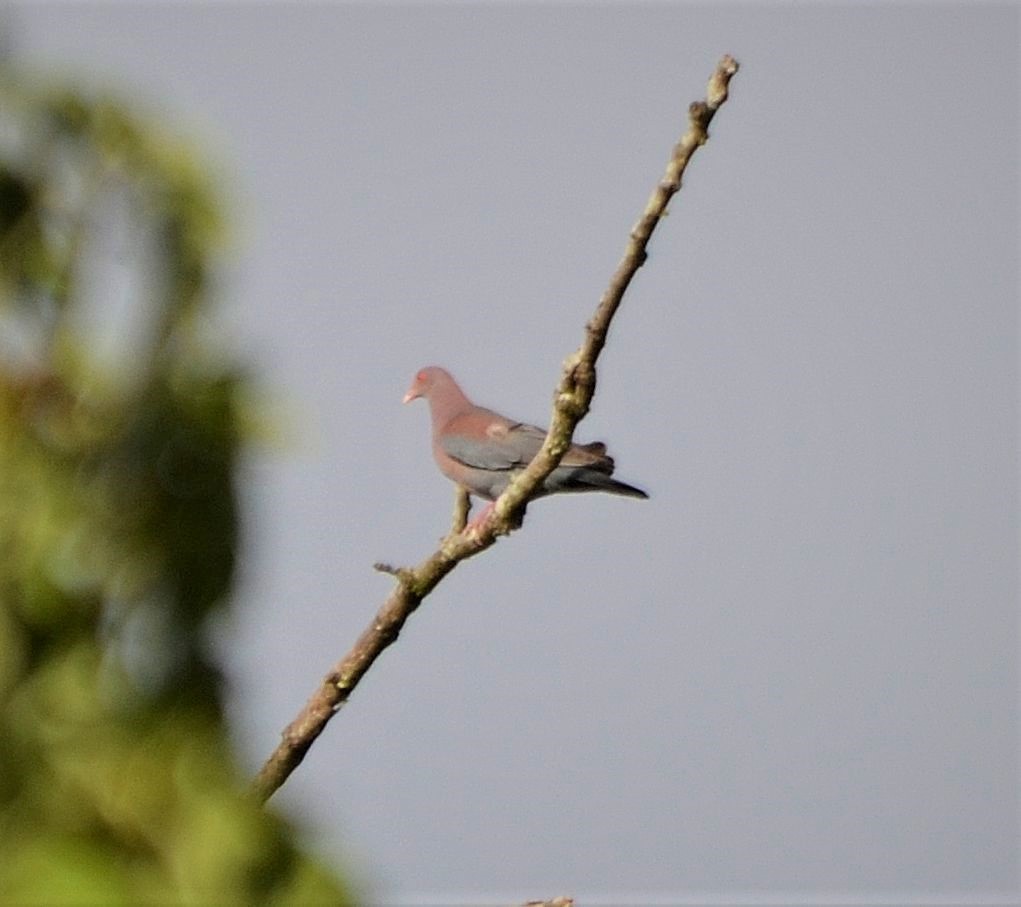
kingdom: Animalia
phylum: Chordata
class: Aves
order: Columbiformes
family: Columbidae
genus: Patagioenas
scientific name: Patagioenas flavirostris
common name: Red-billed pigeon
